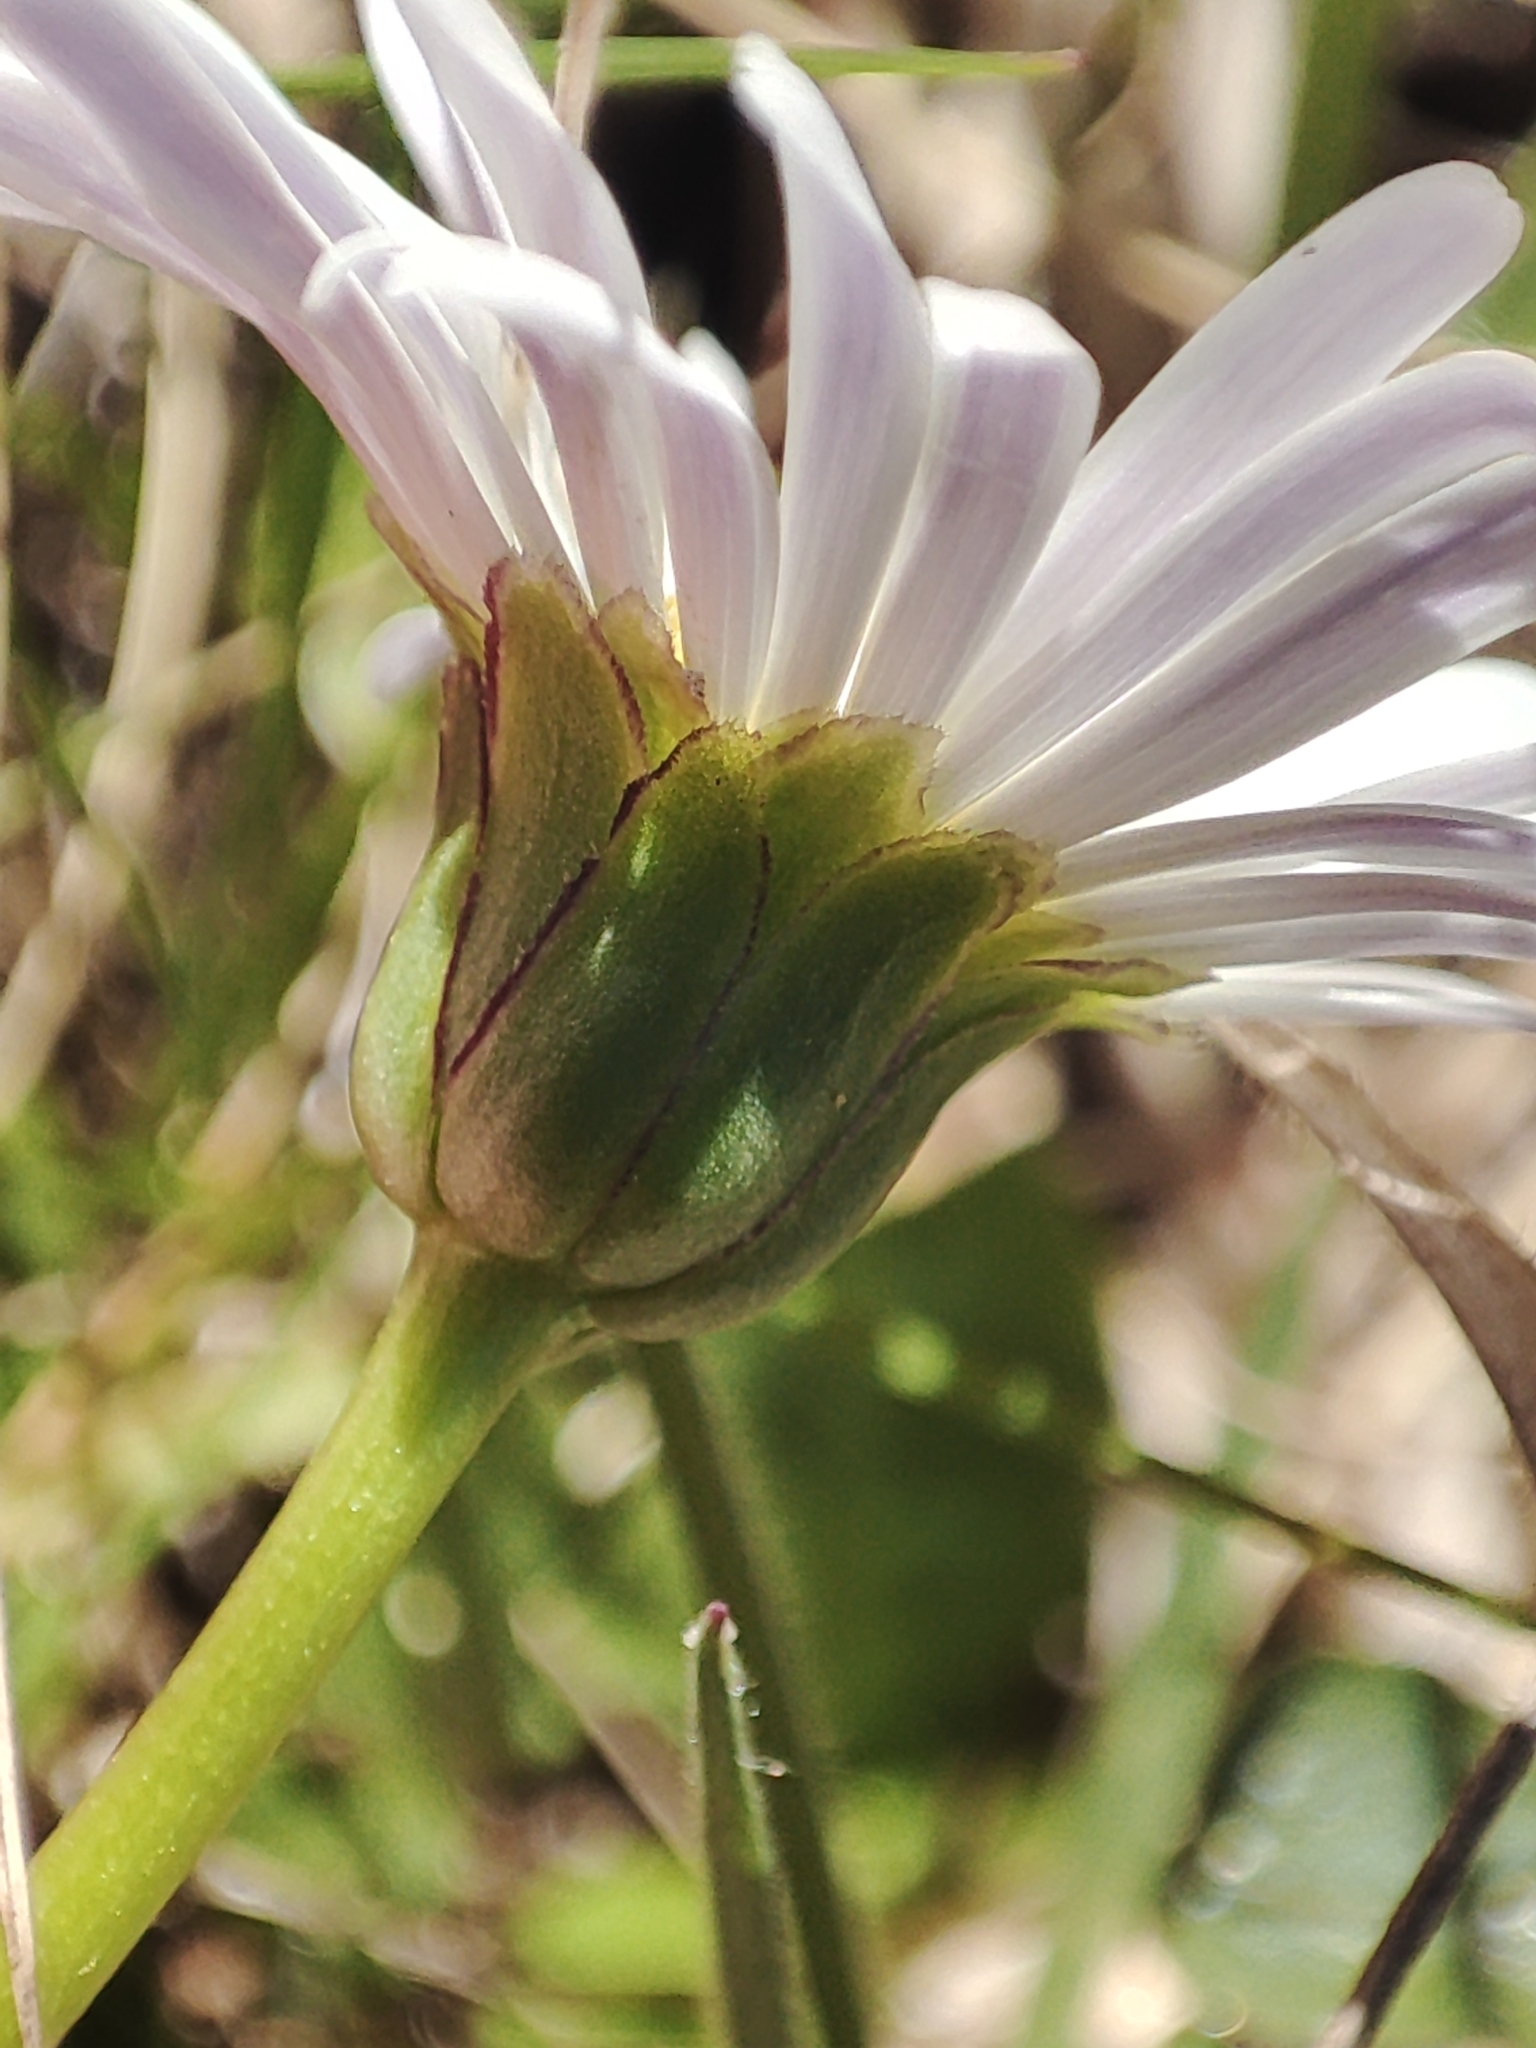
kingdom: Plantae
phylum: Tracheophyta
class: Magnoliopsida
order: Asterales
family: Asteraceae
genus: Brachyscome
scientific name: Brachyscome decipiens
